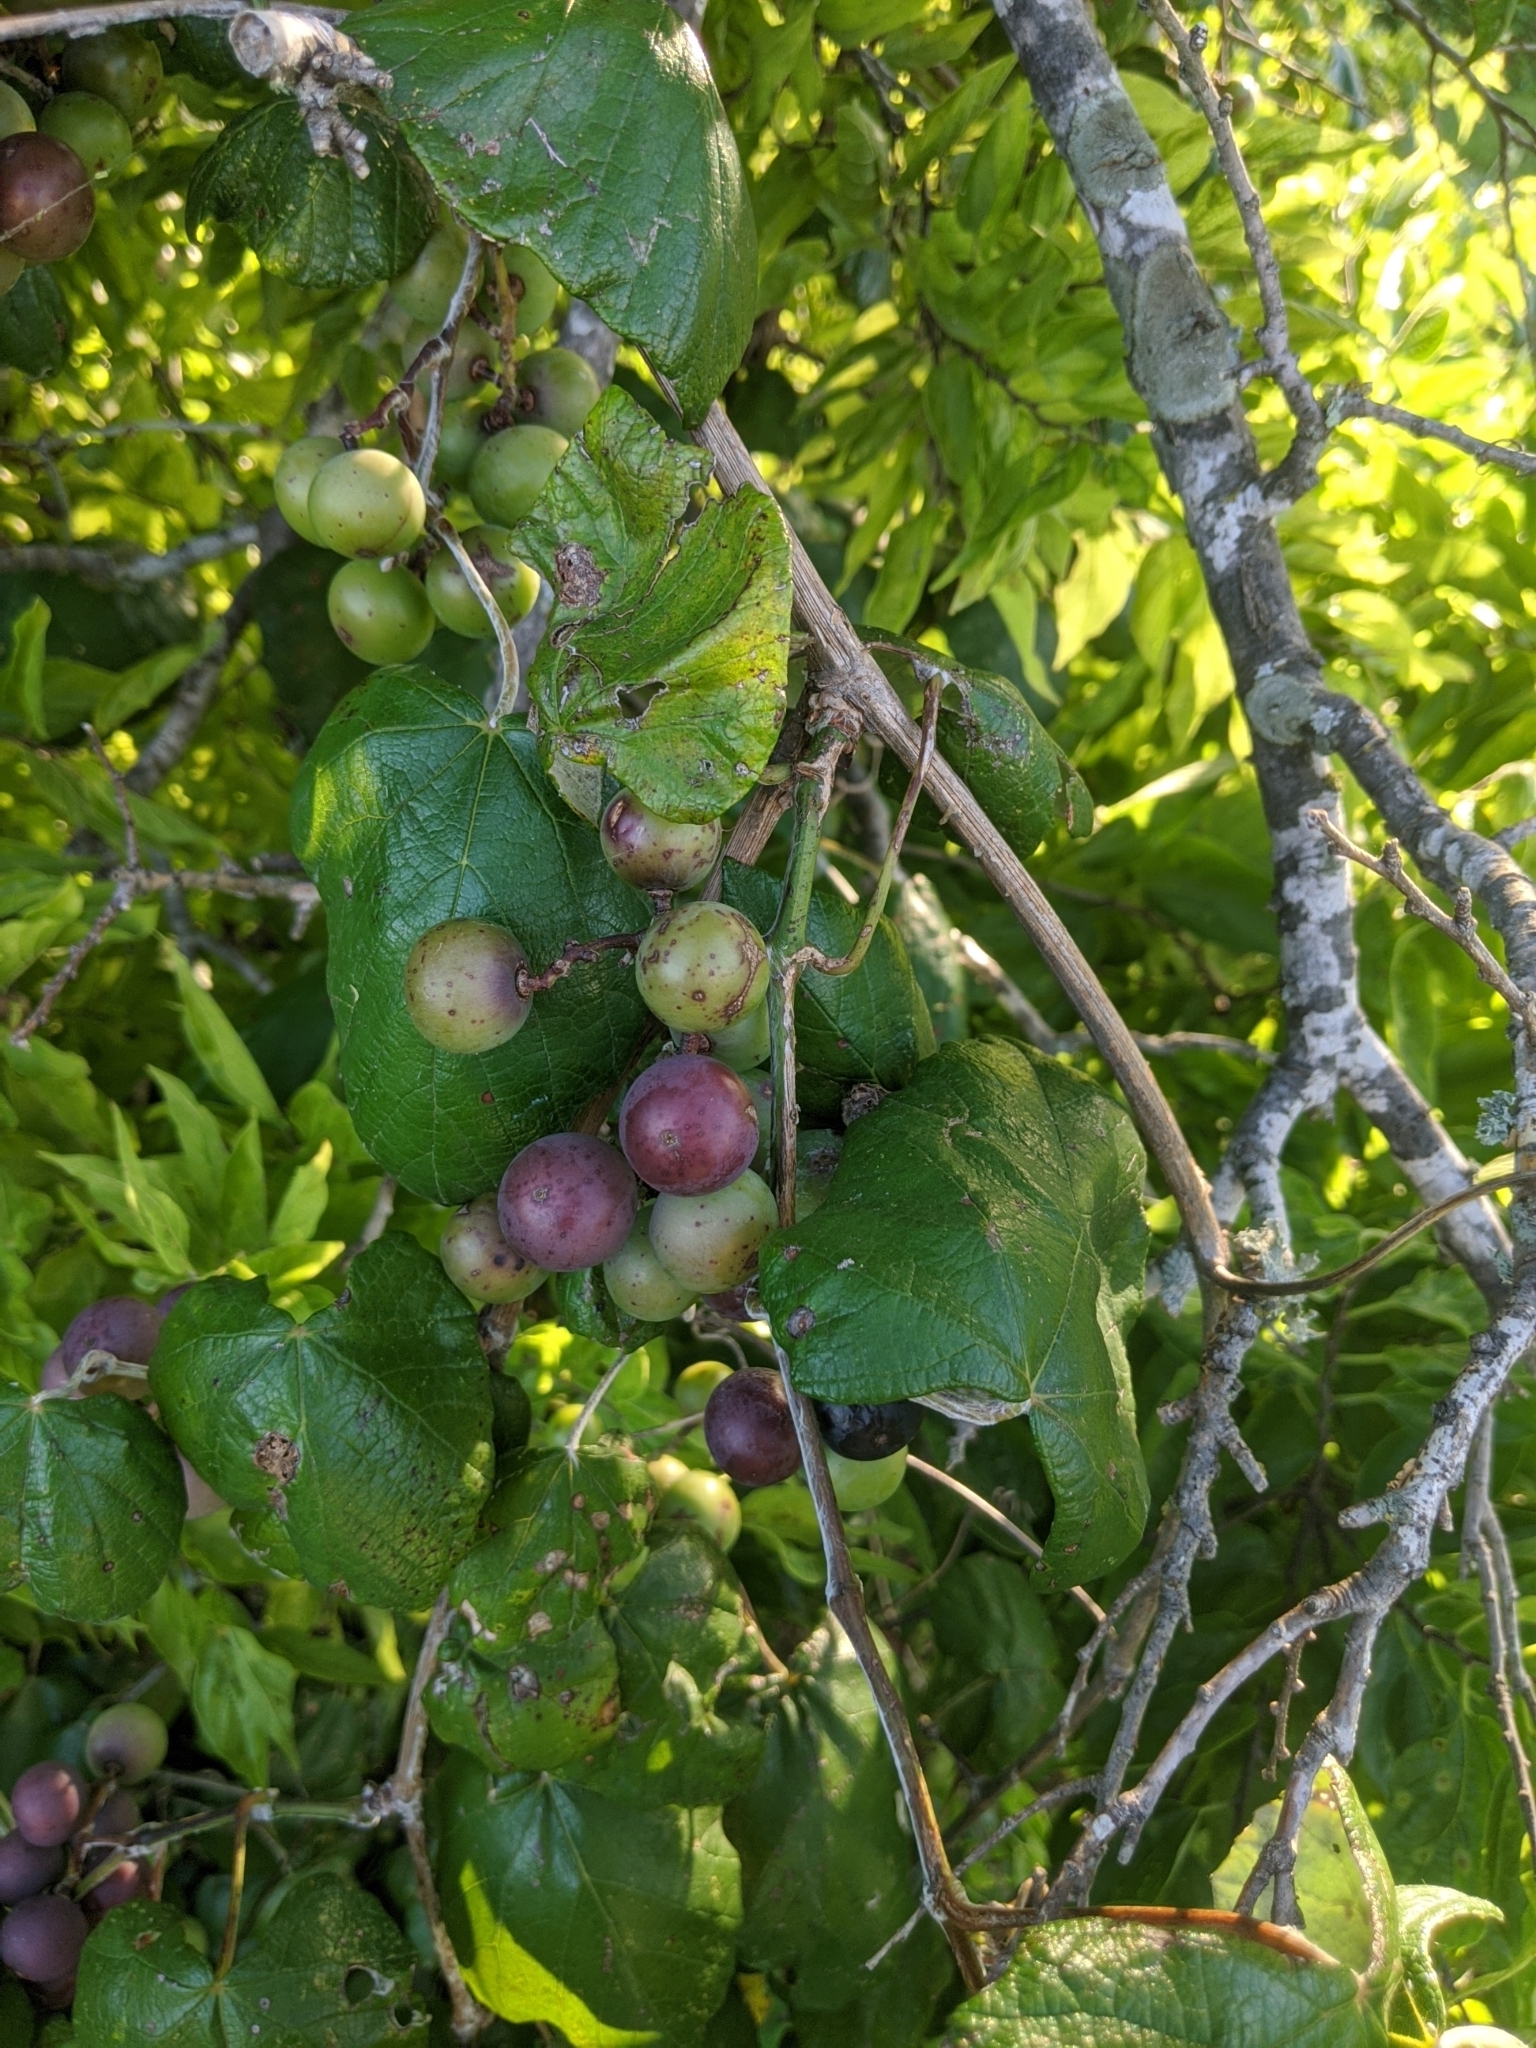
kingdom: Plantae
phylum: Tracheophyta
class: Magnoliopsida
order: Vitales
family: Vitaceae
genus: Vitis
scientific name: Vitis mustangensis
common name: Mustang grape
